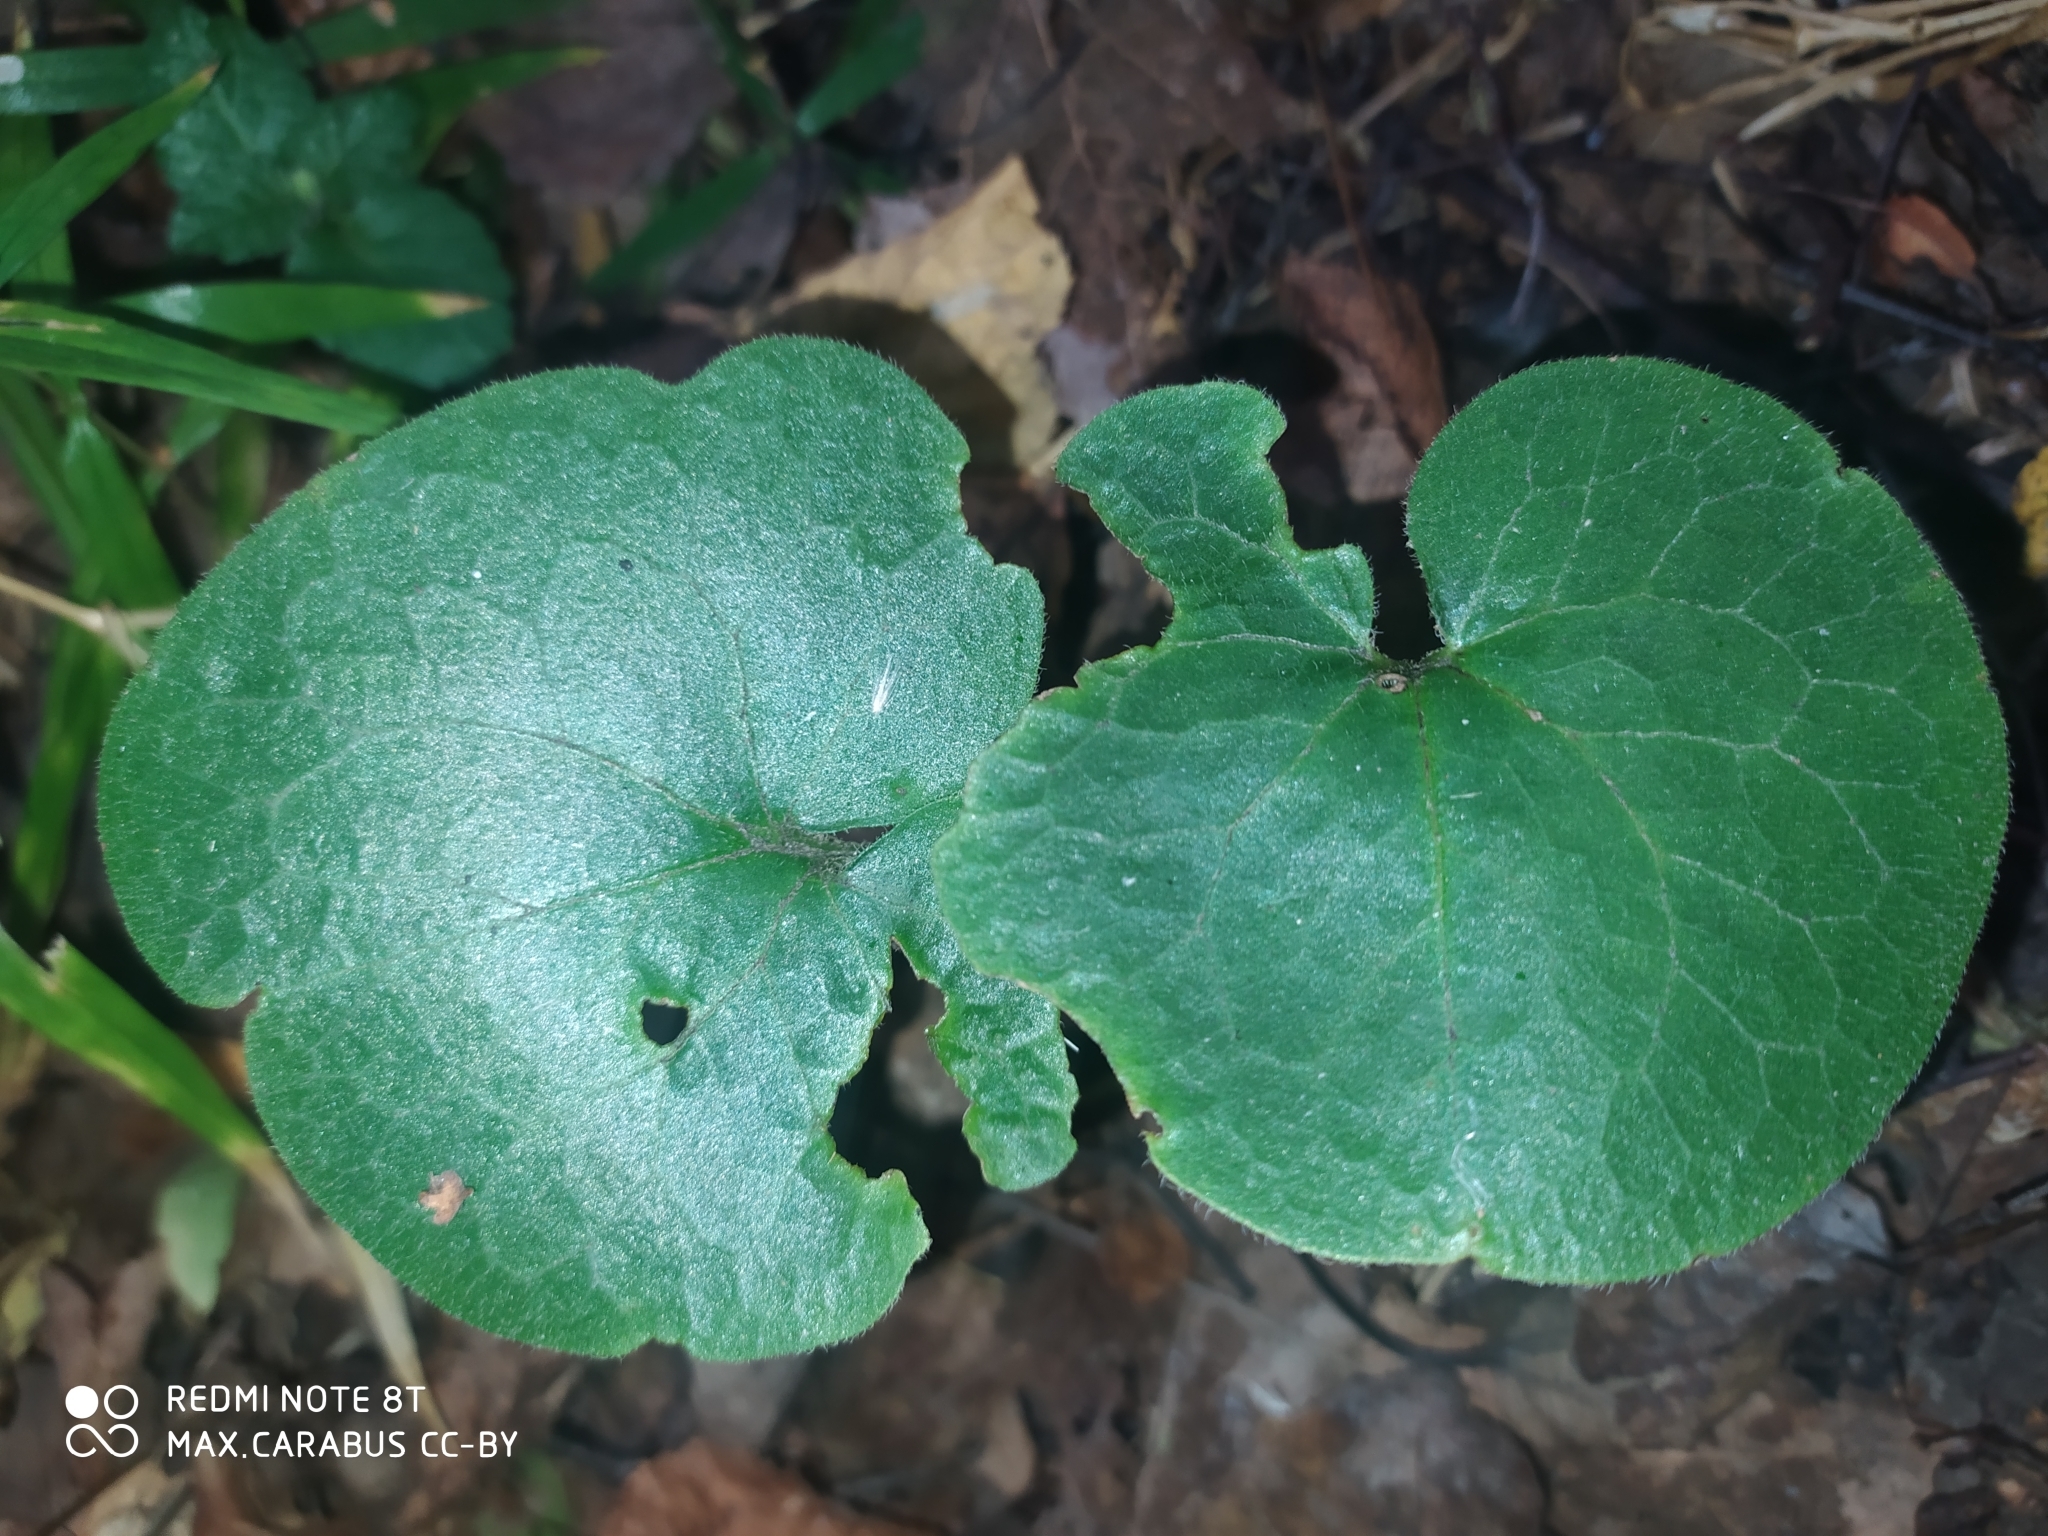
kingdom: Plantae
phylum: Tracheophyta
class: Magnoliopsida
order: Piperales
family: Aristolochiaceae
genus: Asarum
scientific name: Asarum europaeum
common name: Asarabacca
